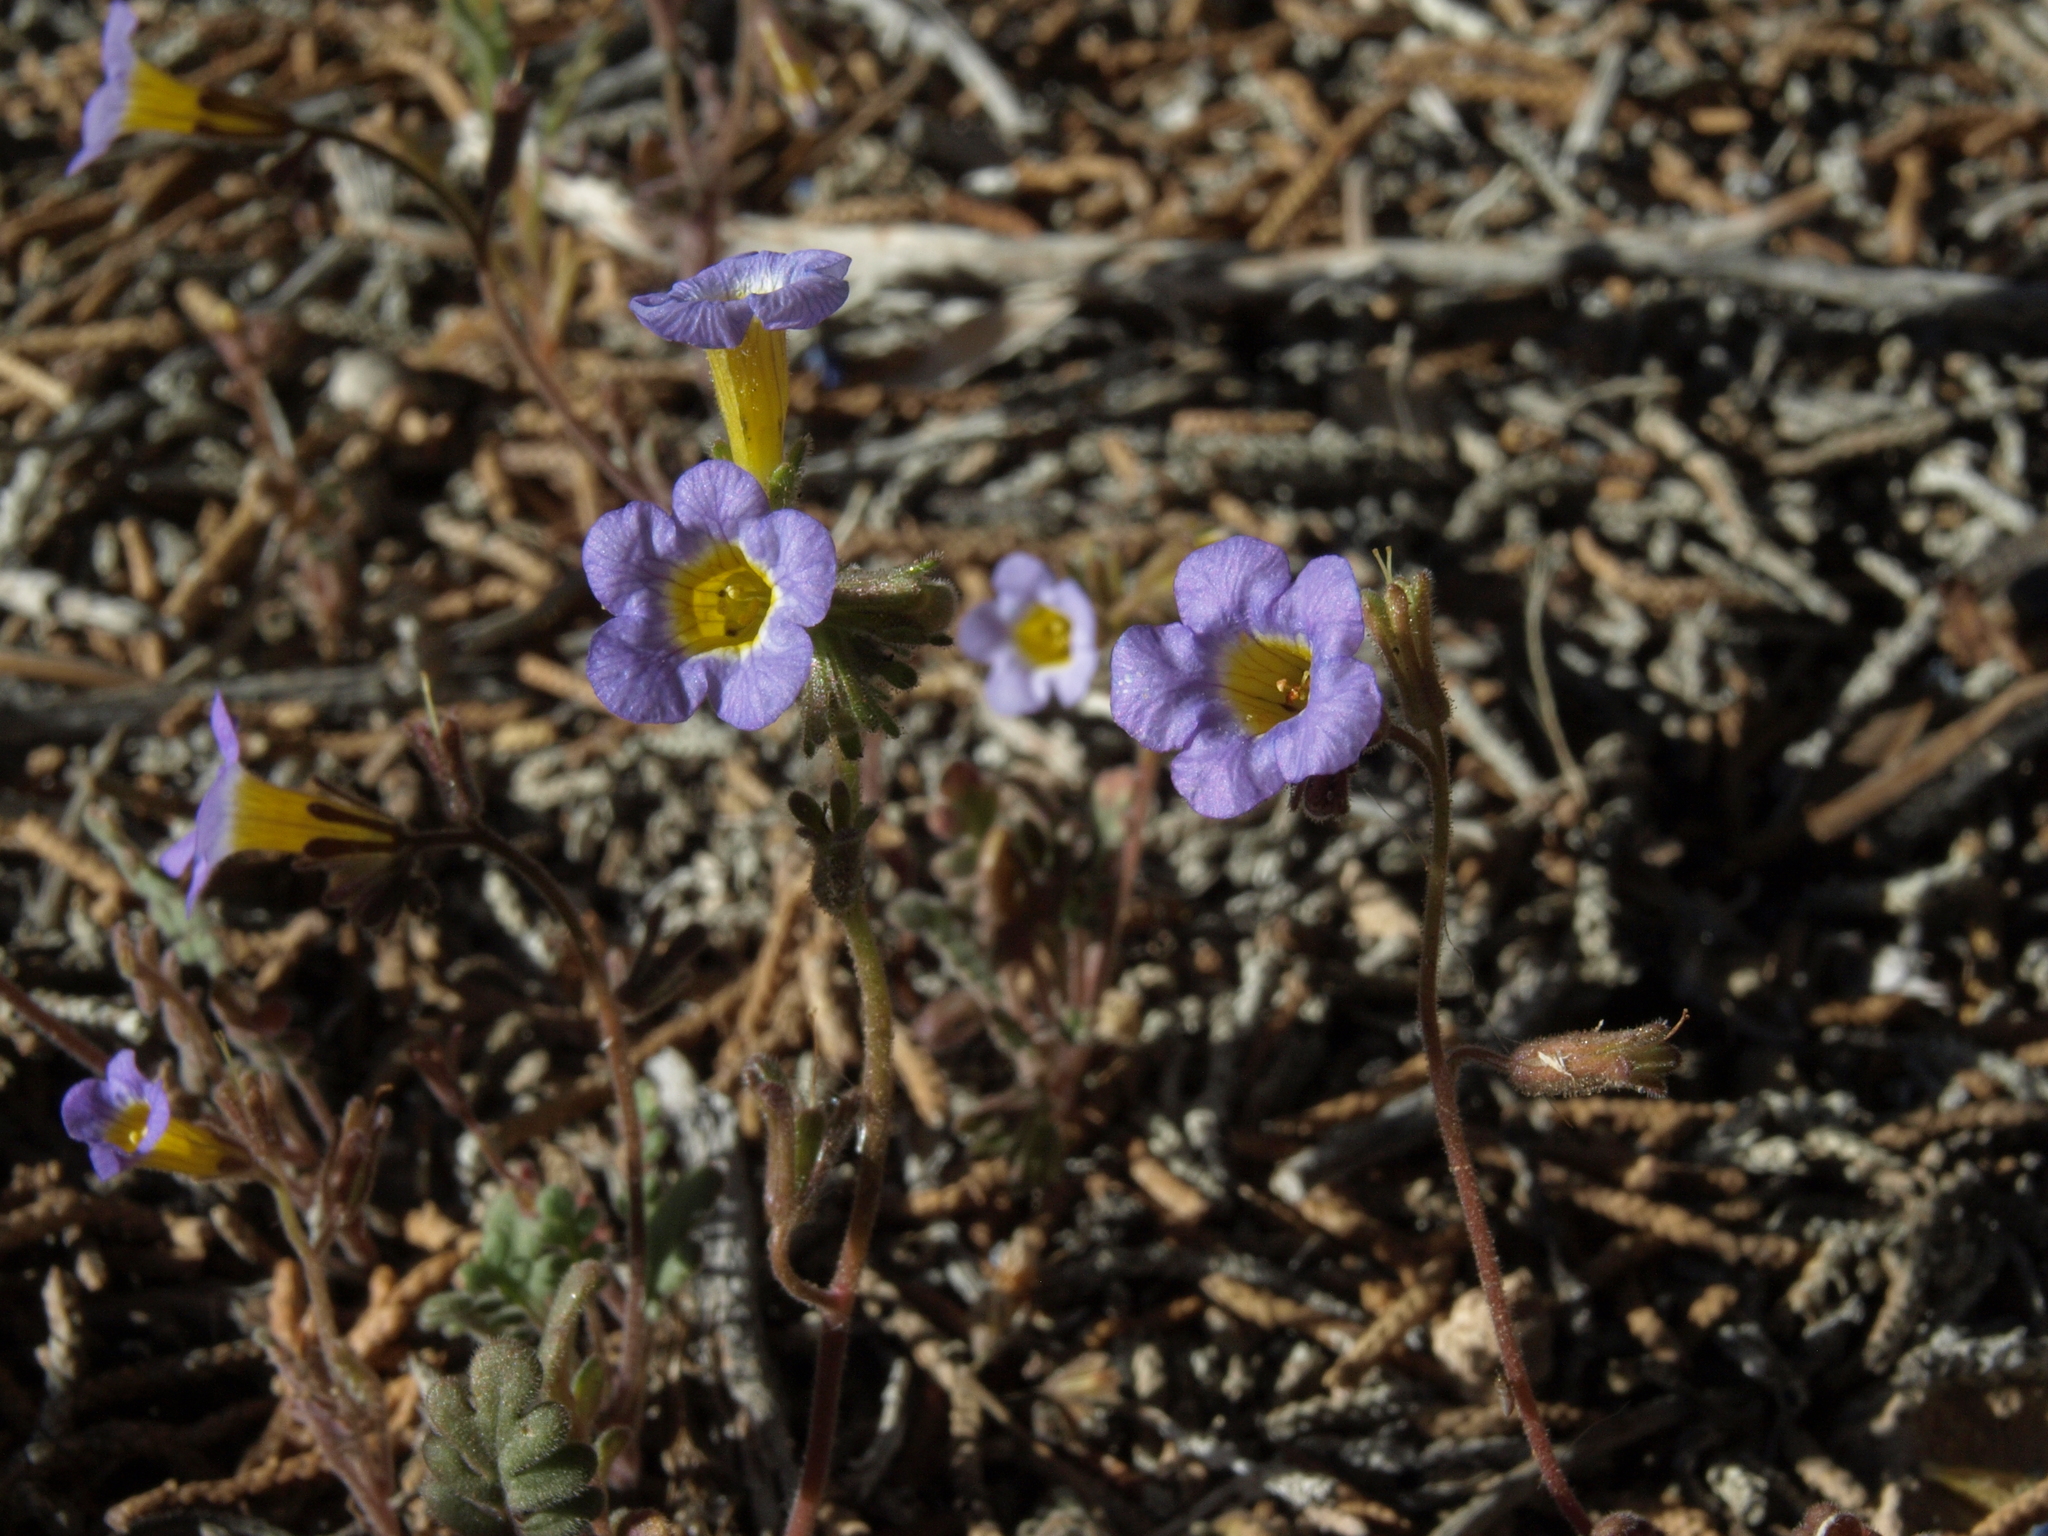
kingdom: Plantae
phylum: Tracheophyta
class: Magnoliopsida
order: Boraginales
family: Hydrophyllaceae
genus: Phacelia
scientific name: Phacelia fremontii
